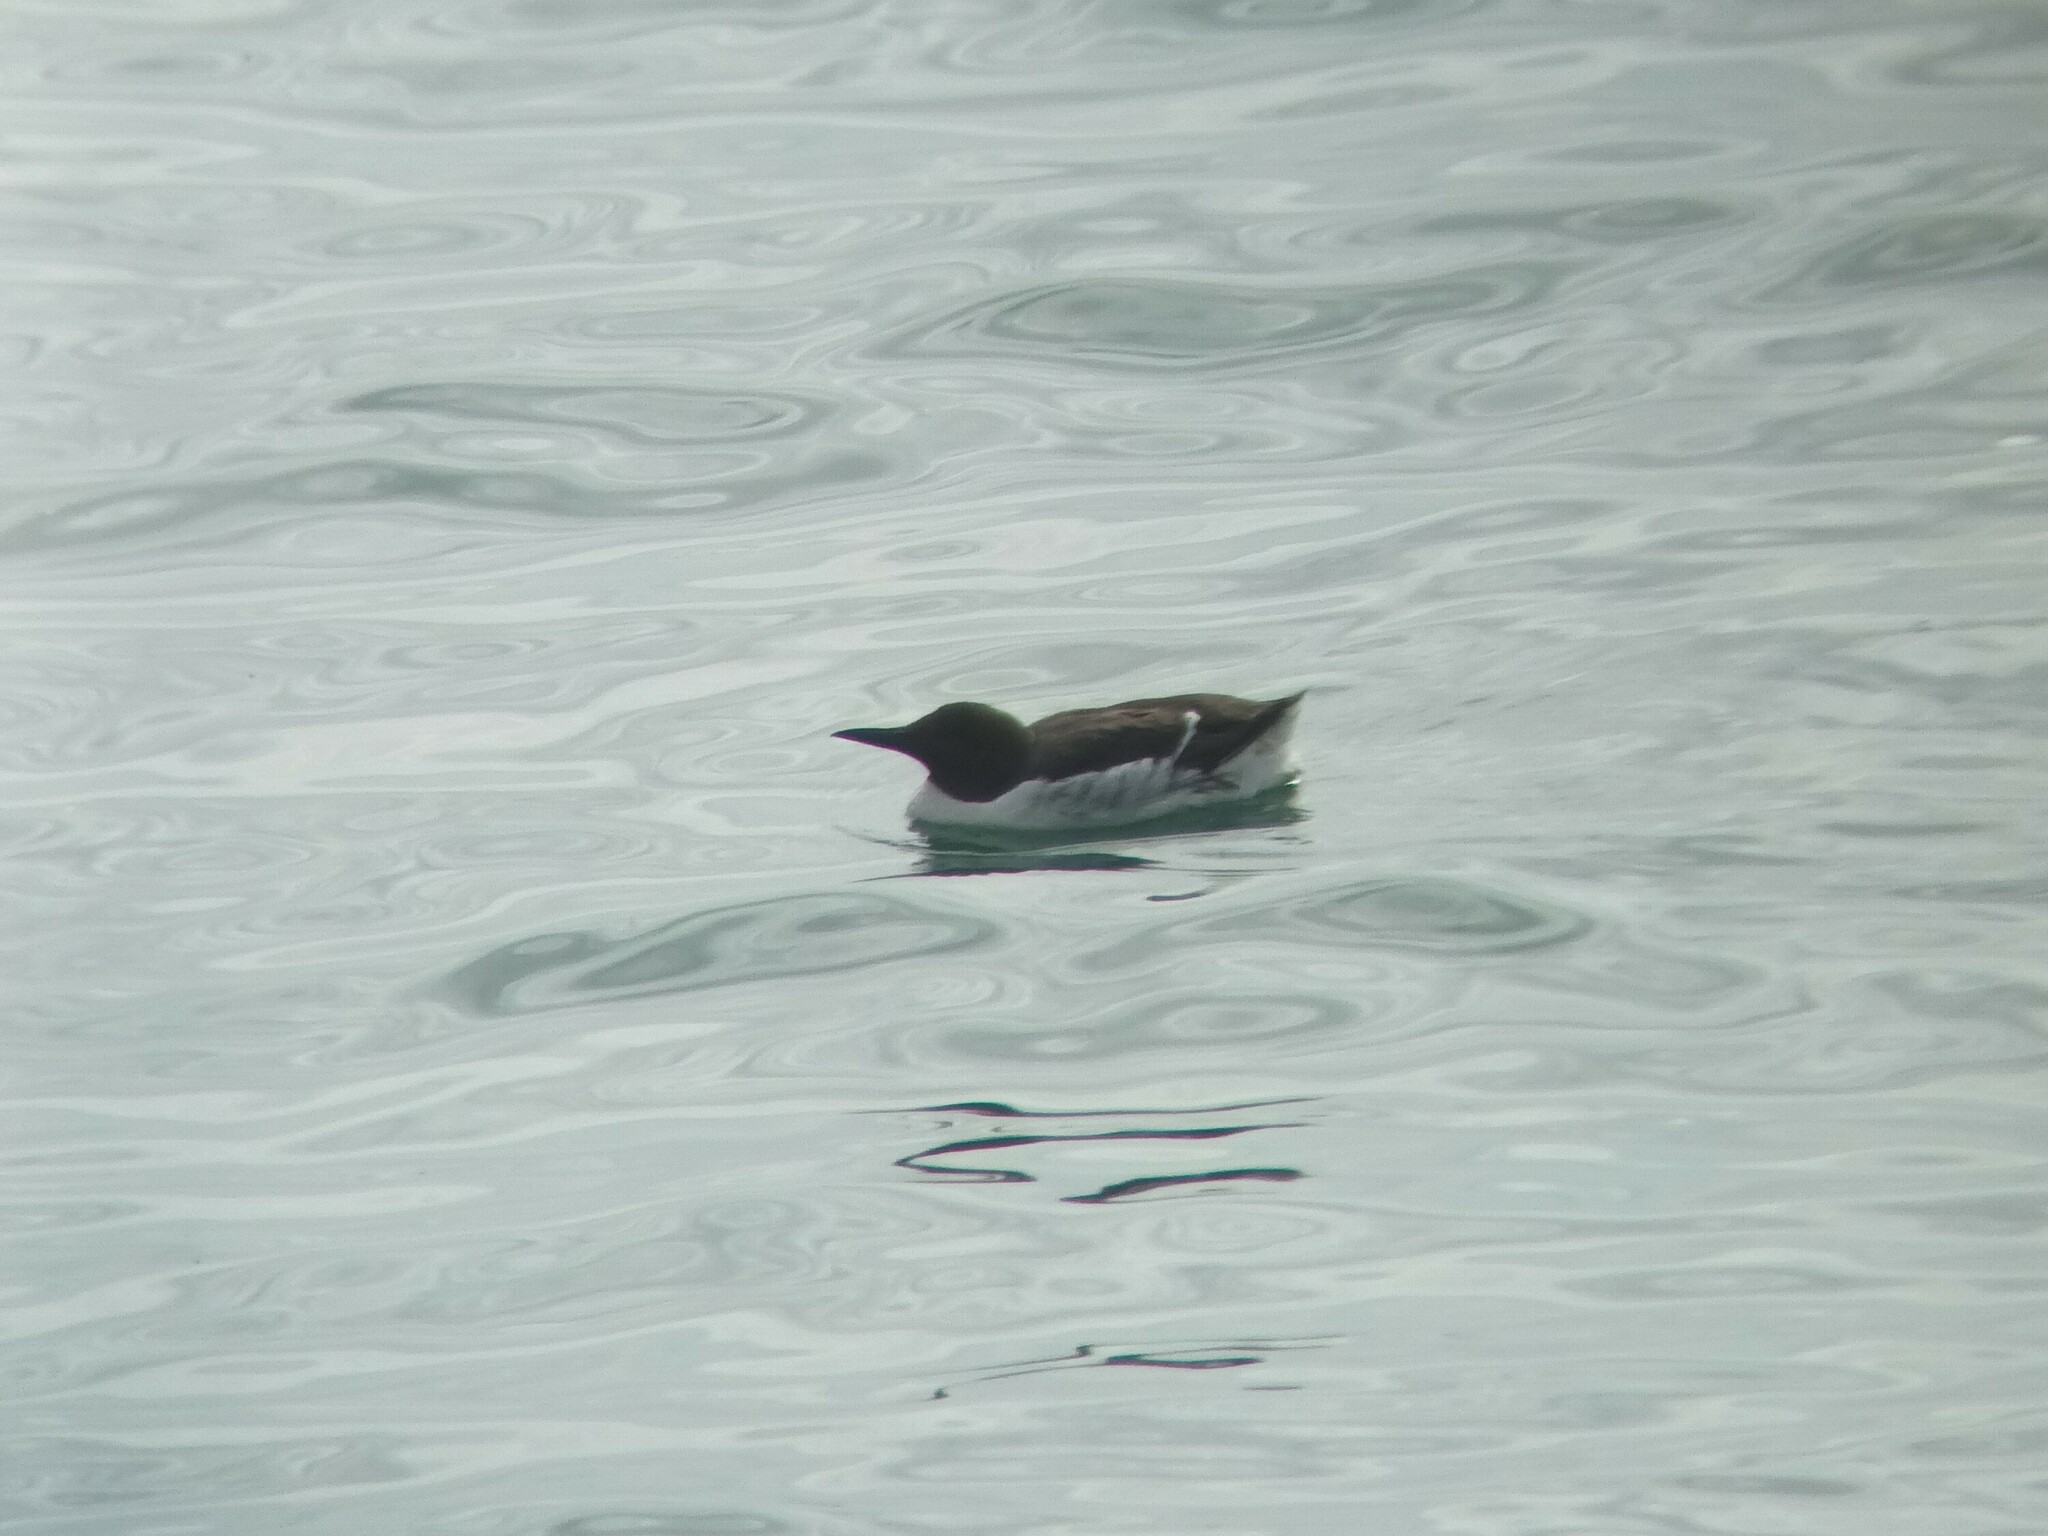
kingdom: Animalia
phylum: Chordata
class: Aves
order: Charadriiformes
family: Alcidae
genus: Uria
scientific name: Uria aalge
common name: Common murre
